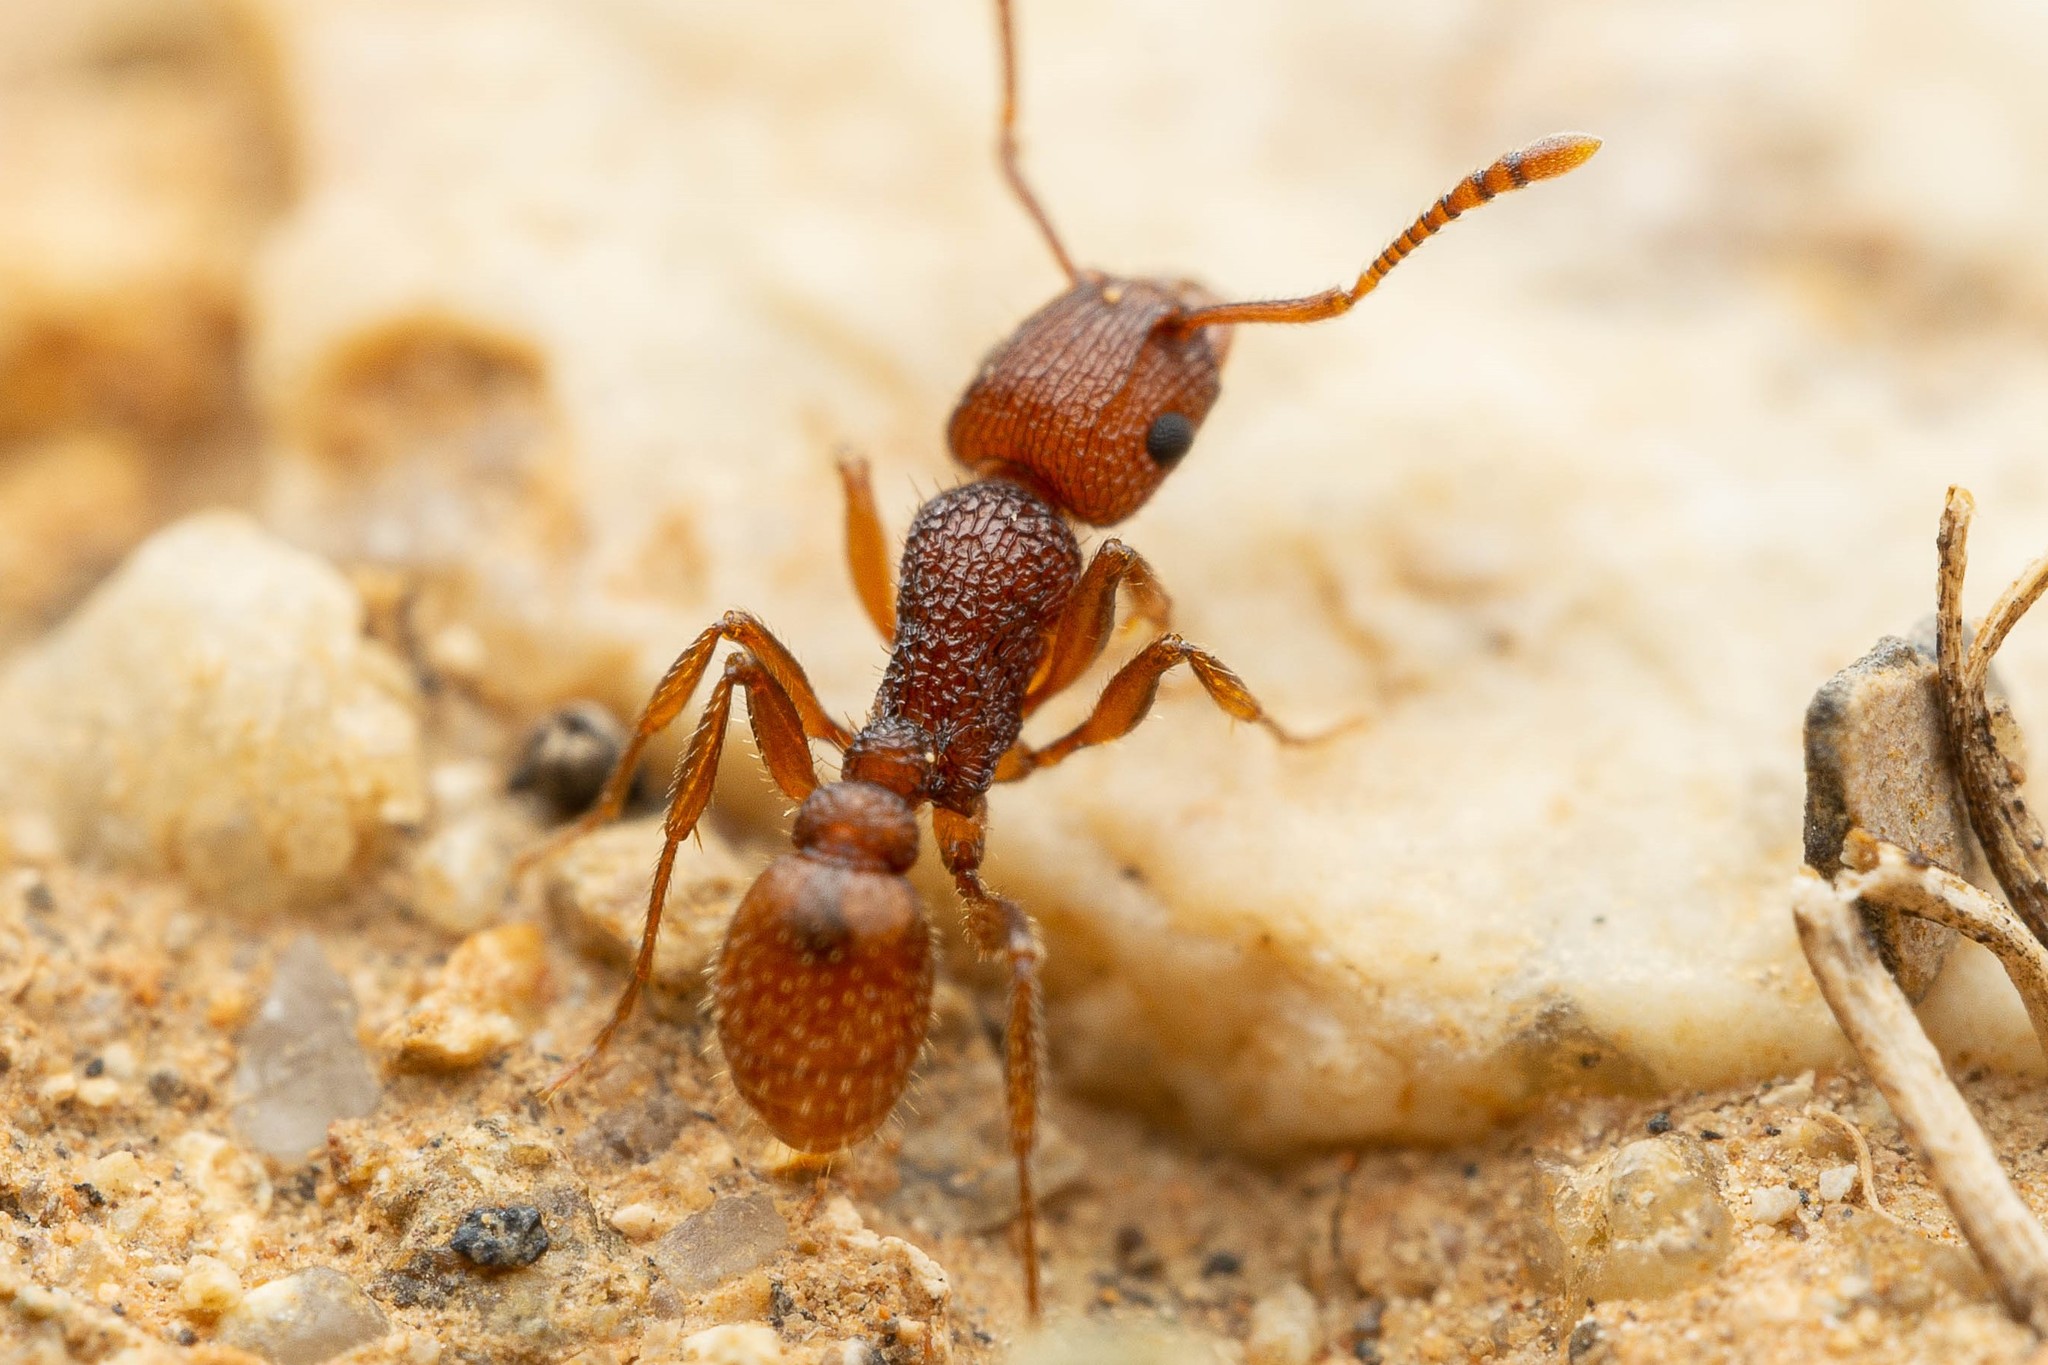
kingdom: Animalia
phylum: Arthropoda
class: Insecta
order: Hymenoptera
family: Formicidae
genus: Tetramorium
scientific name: Tetramorium hispidum
